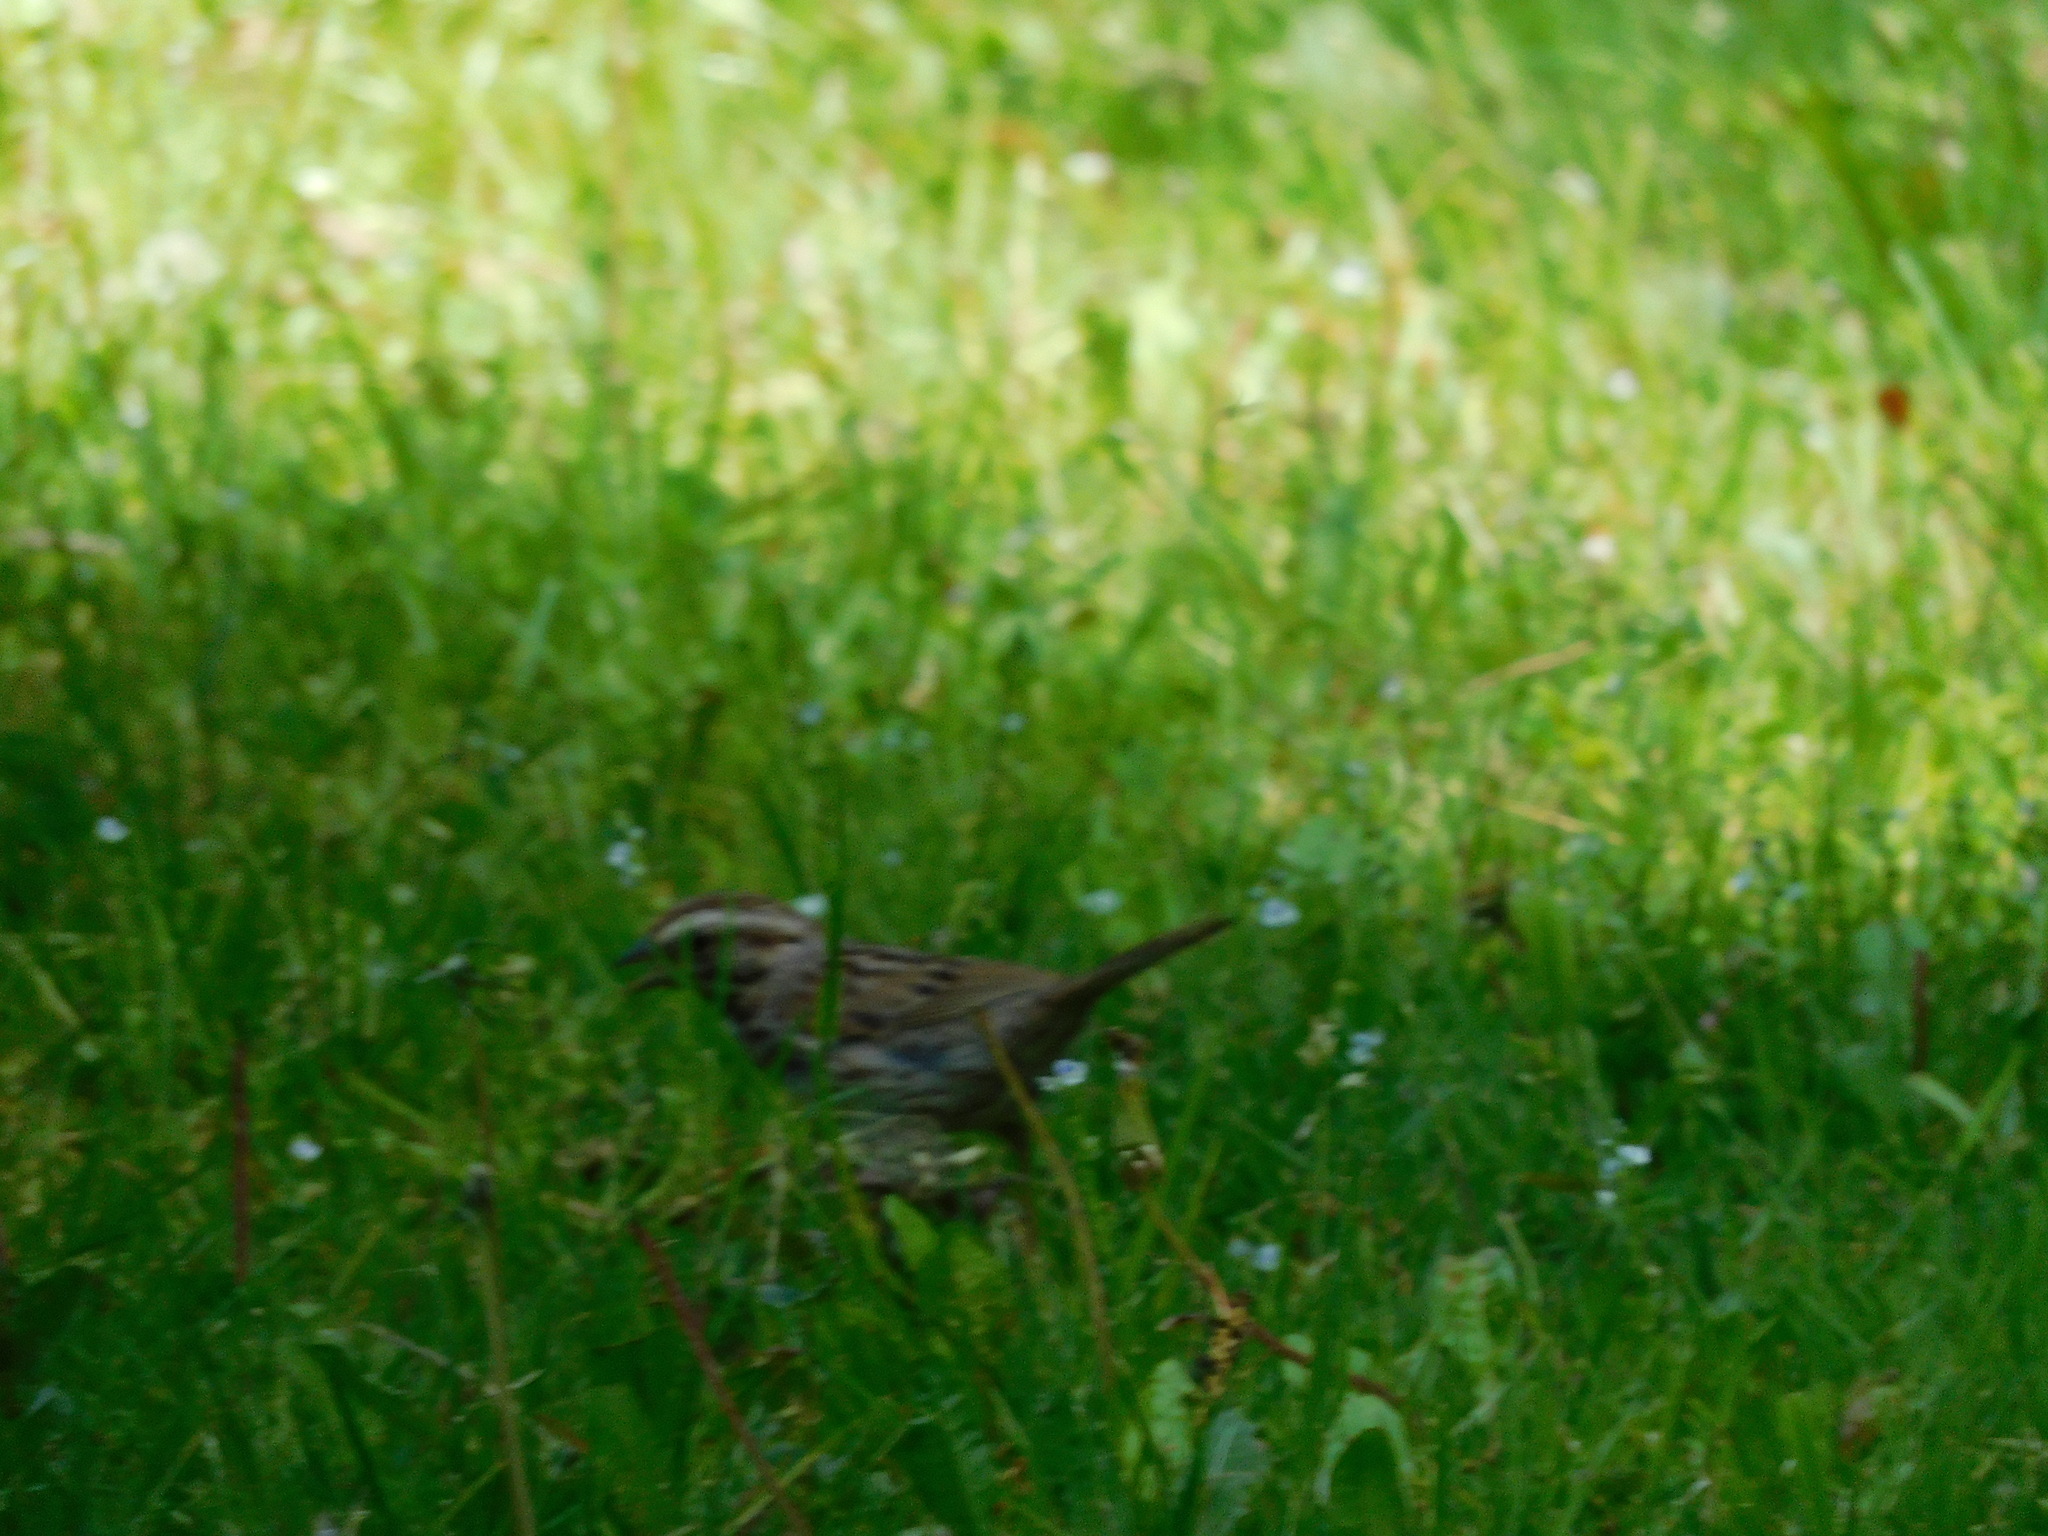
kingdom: Animalia
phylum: Chordata
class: Aves
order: Passeriformes
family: Passerellidae
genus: Melospiza
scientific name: Melospiza melodia
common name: Song sparrow
